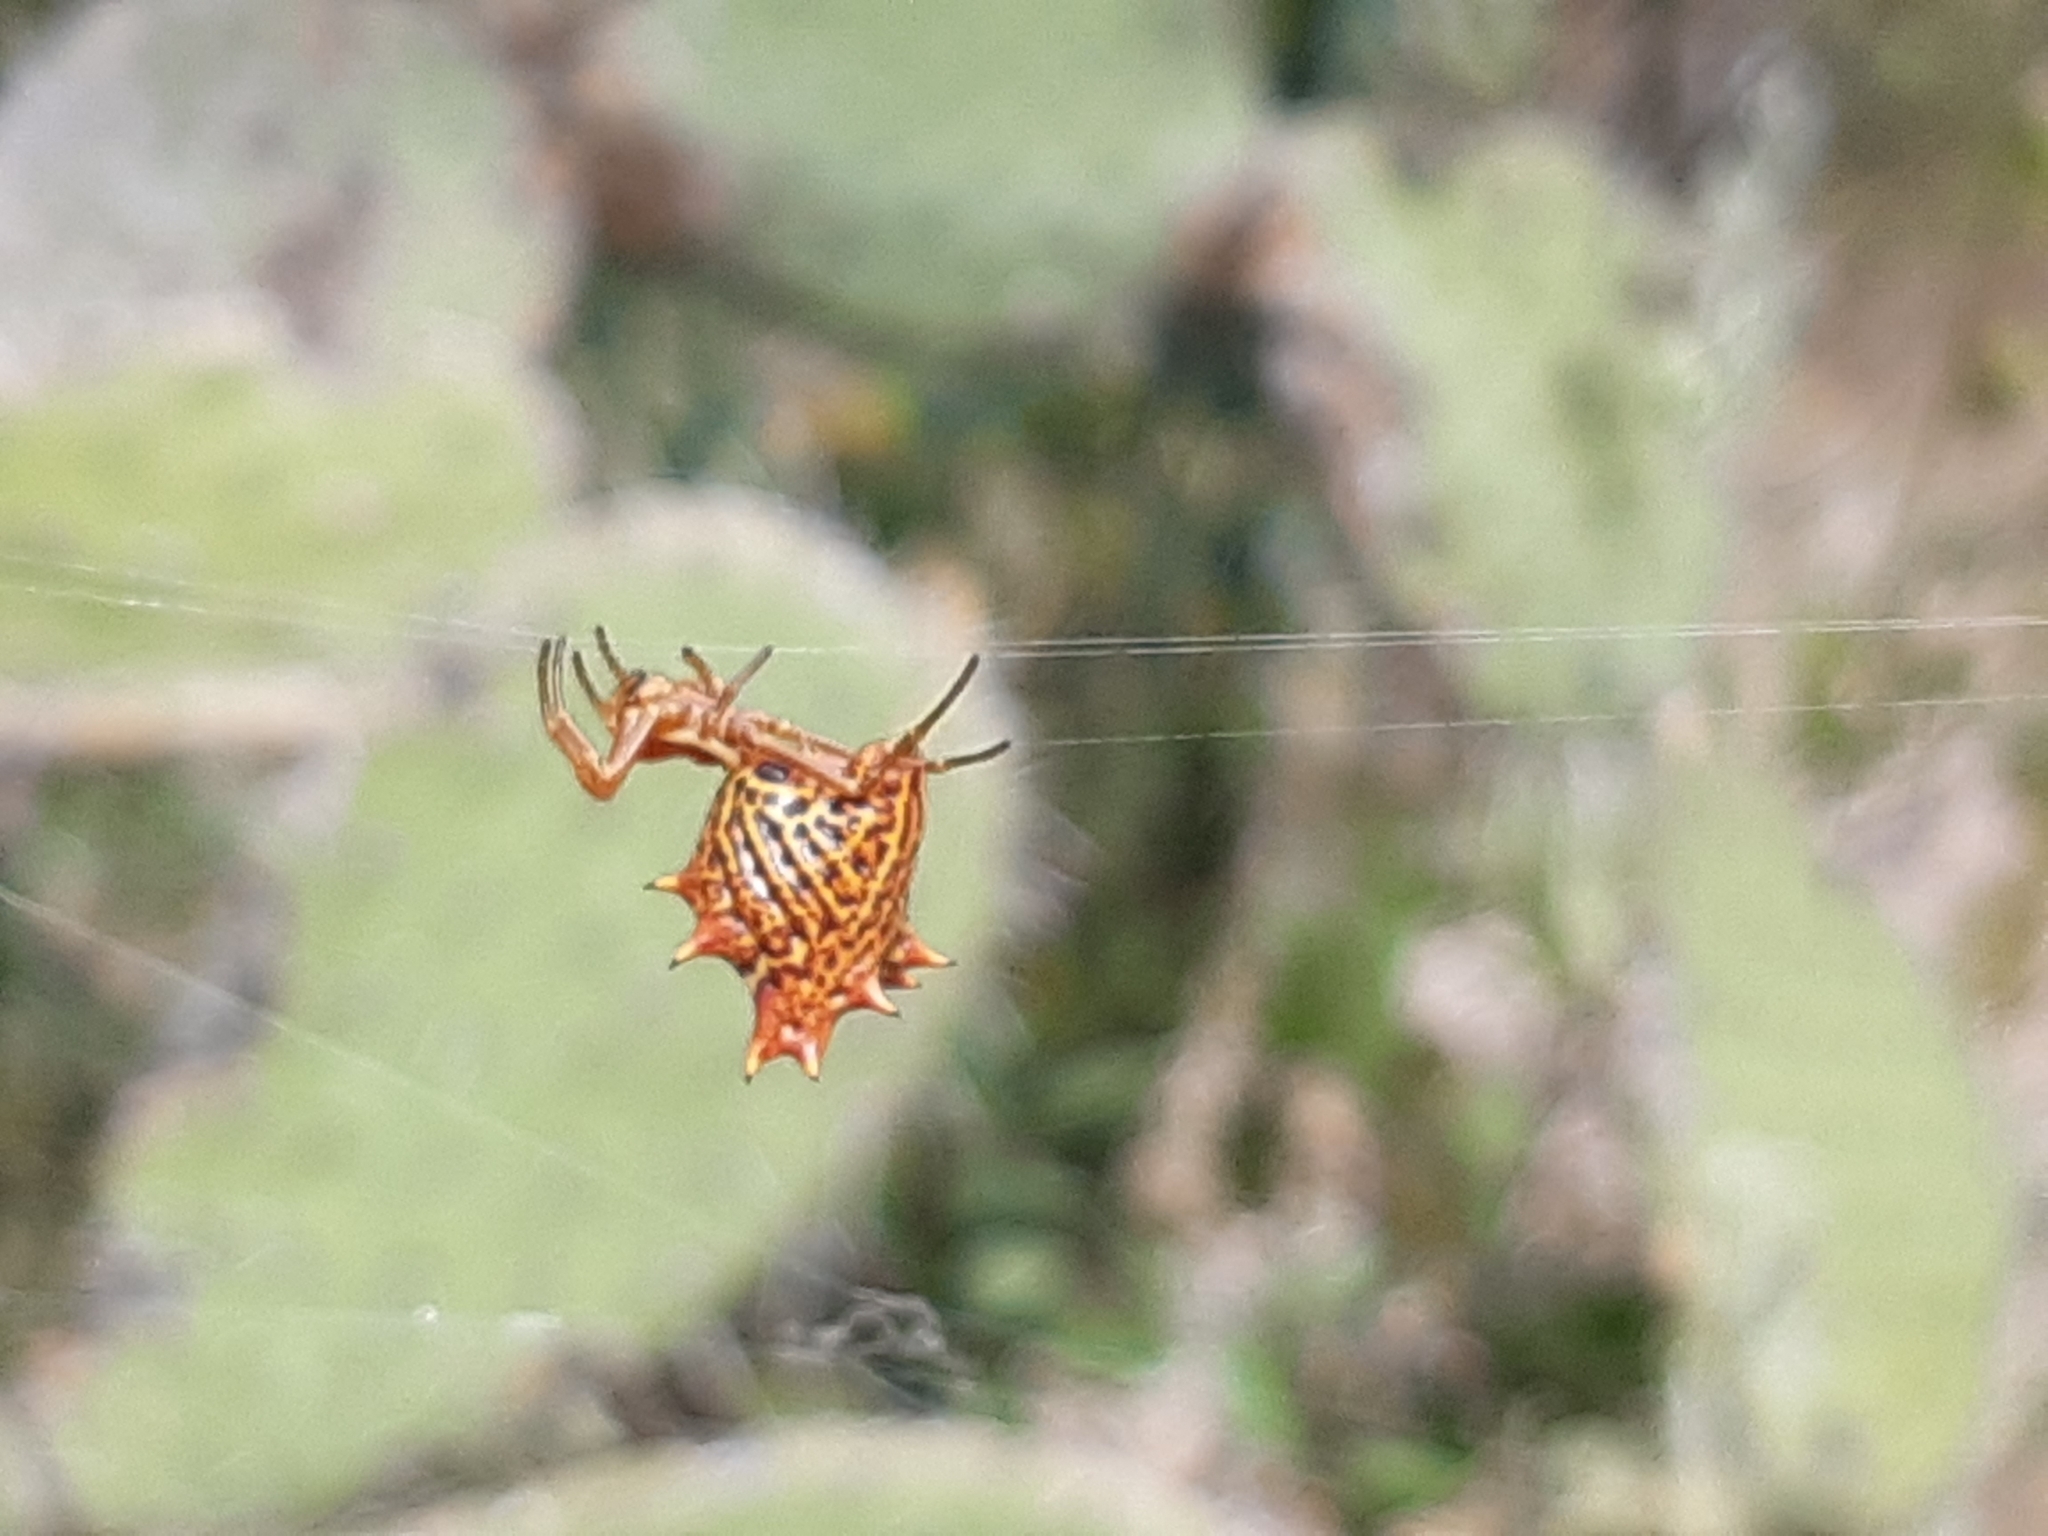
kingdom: Animalia
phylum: Arthropoda
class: Arachnida
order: Araneae
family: Araneidae
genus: Micrathena
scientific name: Micrathena gracilis
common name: Orb weavers
